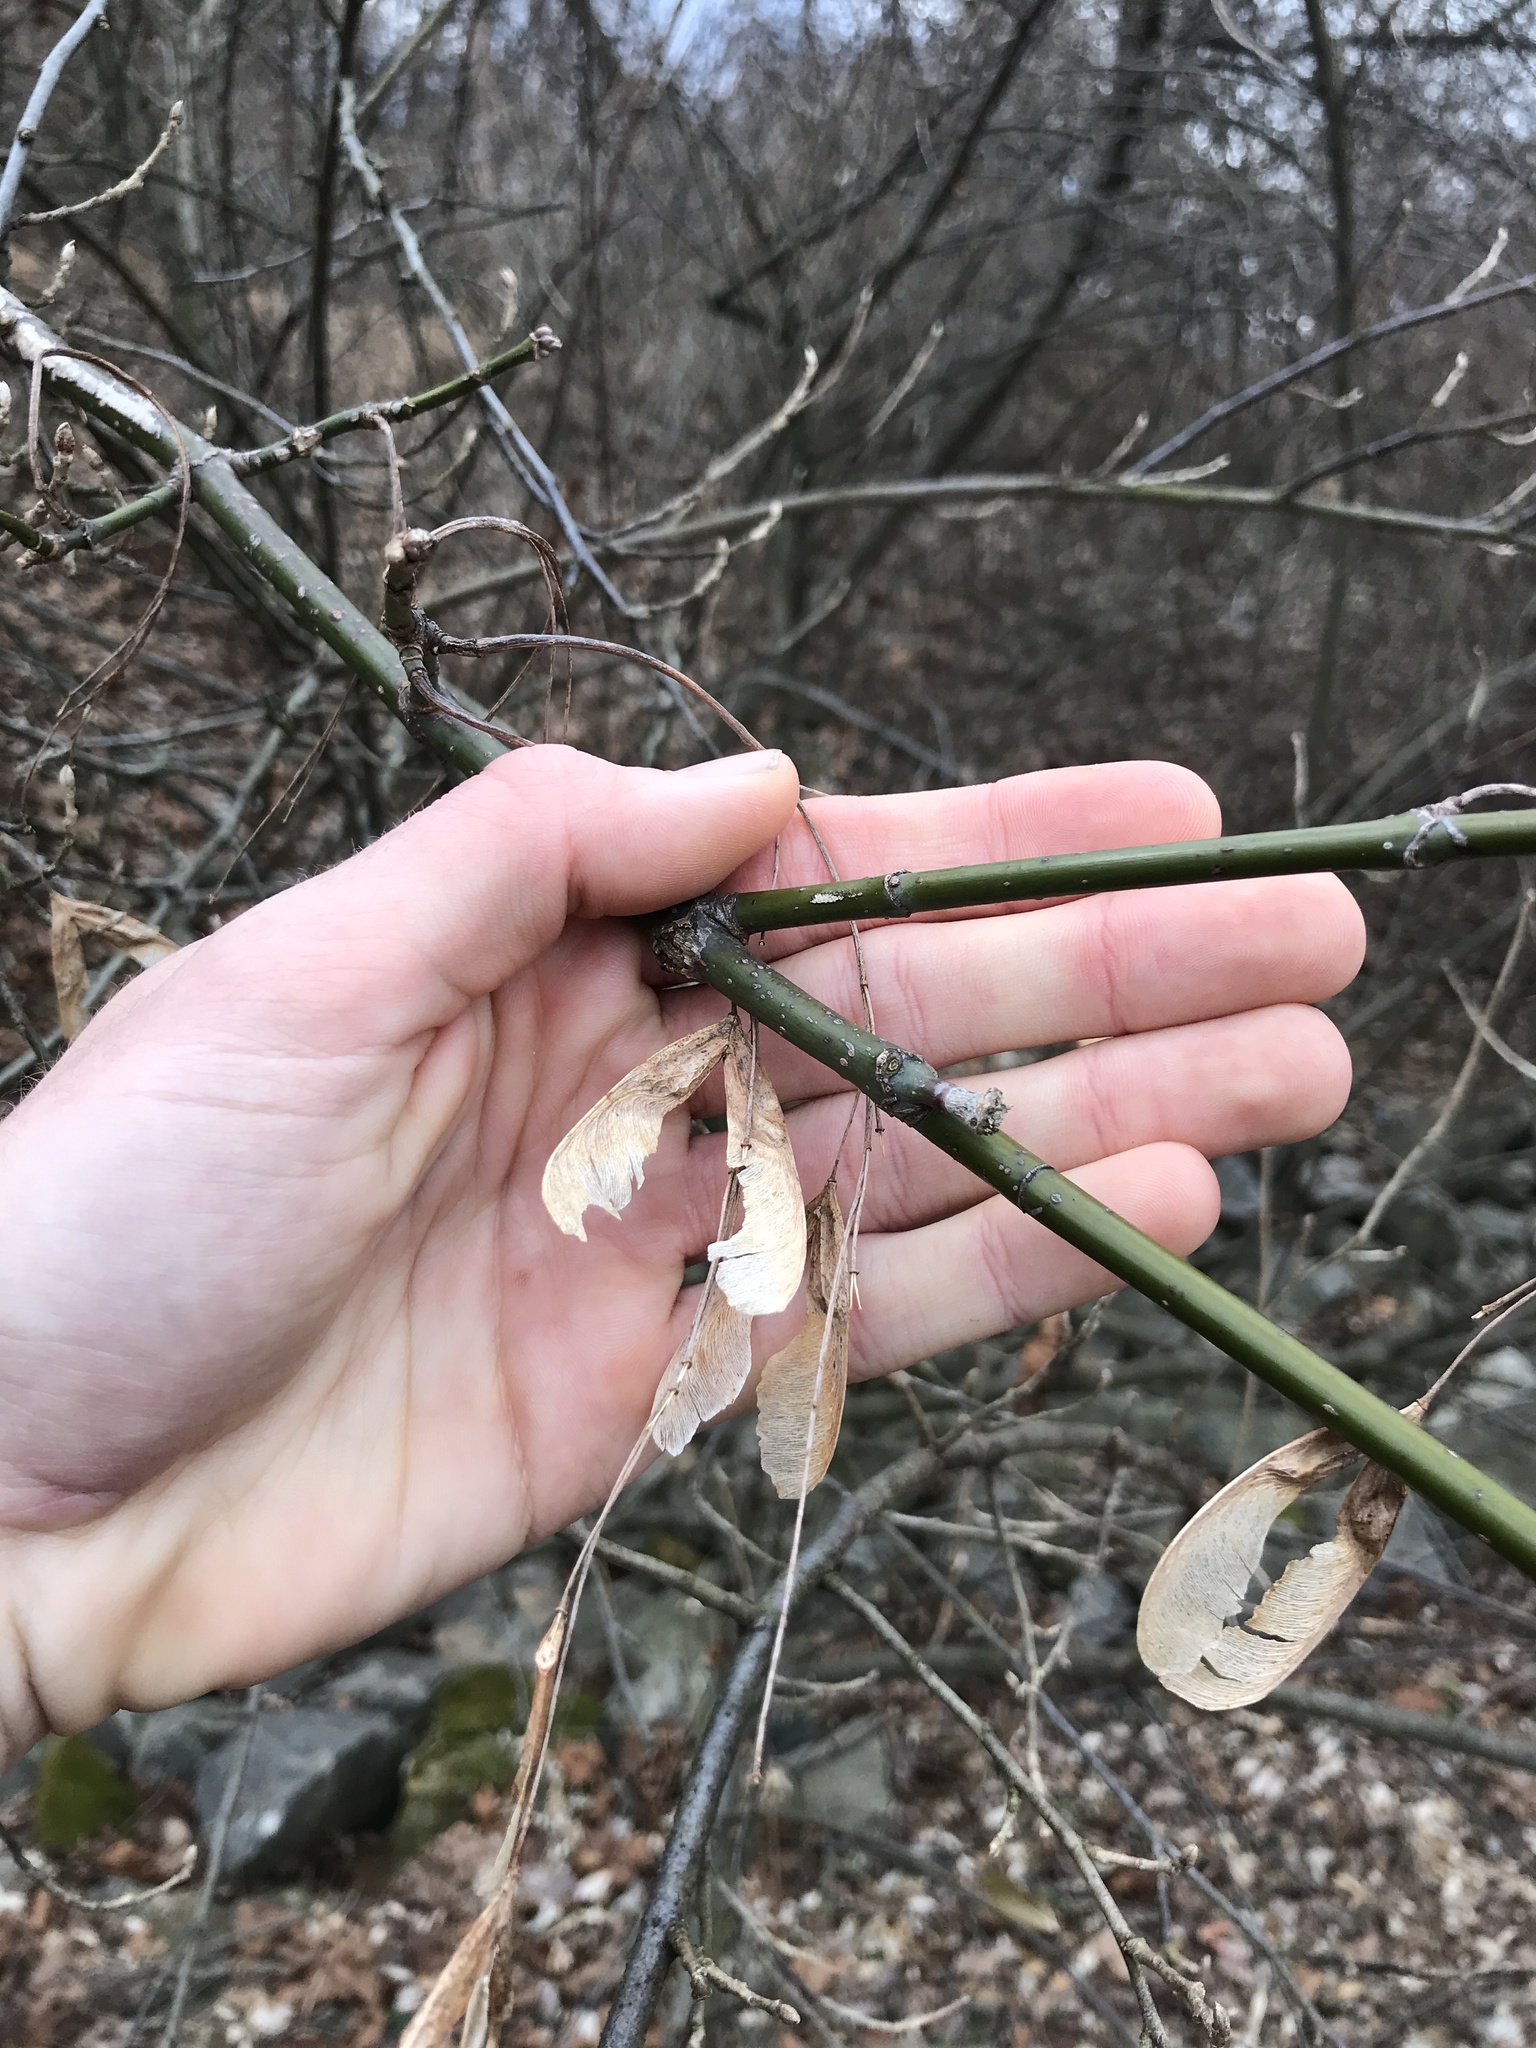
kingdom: Plantae
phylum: Tracheophyta
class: Magnoliopsida
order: Sapindales
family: Sapindaceae
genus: Acer
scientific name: Acer negundo
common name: Ashleaf maple
